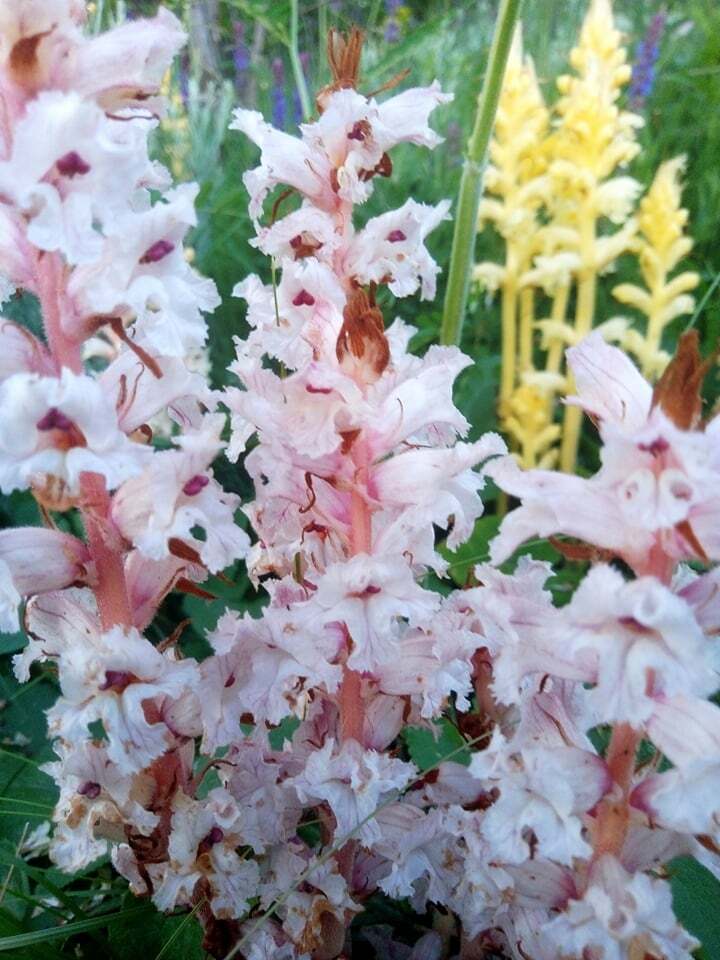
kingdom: Plantae
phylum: Tracheophyta
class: Magnoliopsida
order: Lamiales
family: Orobanchaceae
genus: Orobanche
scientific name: Orobanche alba
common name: Thyme broomrape
